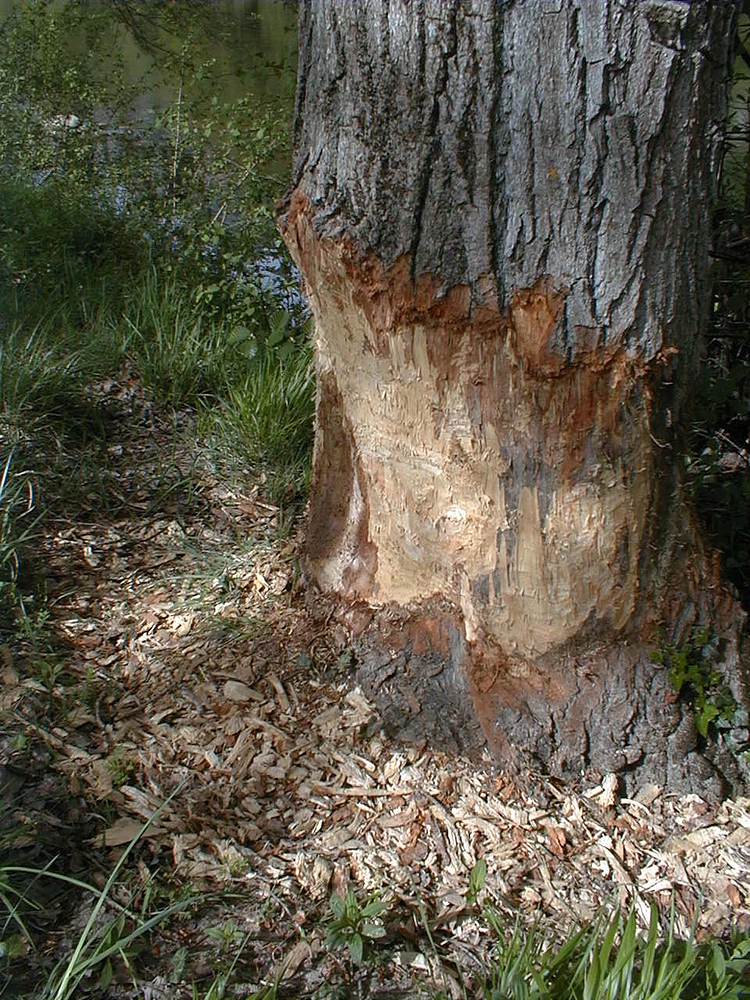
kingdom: Animalia
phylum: Chordata
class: Mammalia
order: Rodentia
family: Castoridae
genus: Castor
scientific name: Castor fiber
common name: Eurasian beaver
